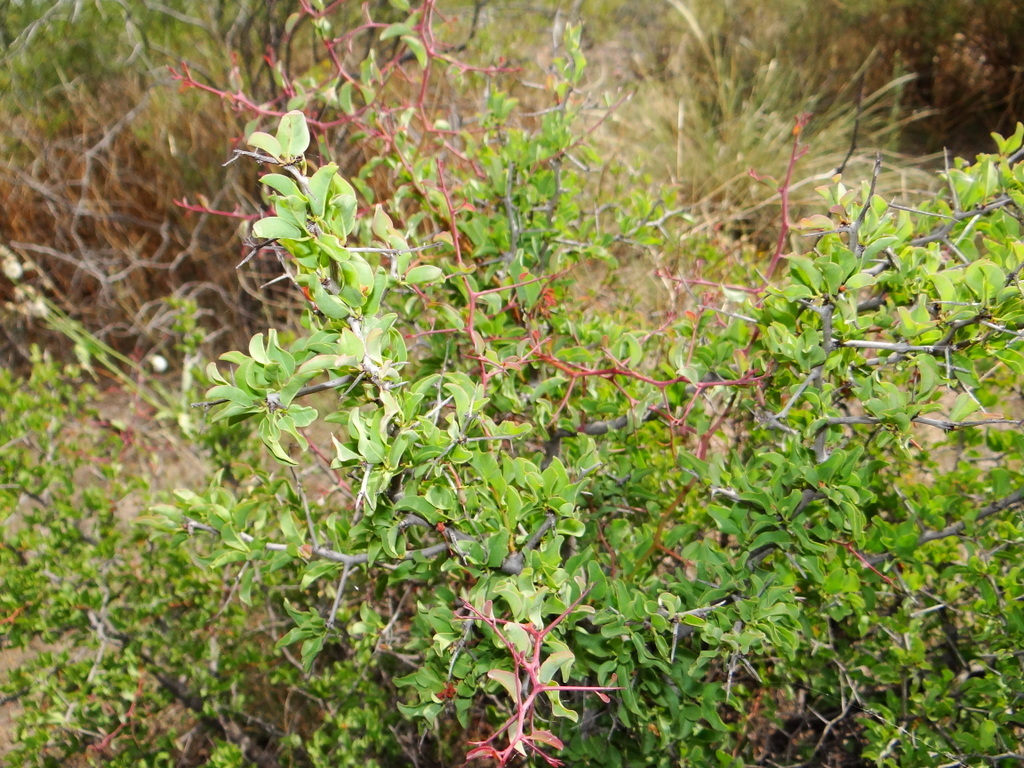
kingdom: Plantae
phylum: Tracheophyta
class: Magnoliopsida
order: Santalales
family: Ximeniaceae
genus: Ximenia
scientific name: Ximenia americana
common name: Tallowwood
